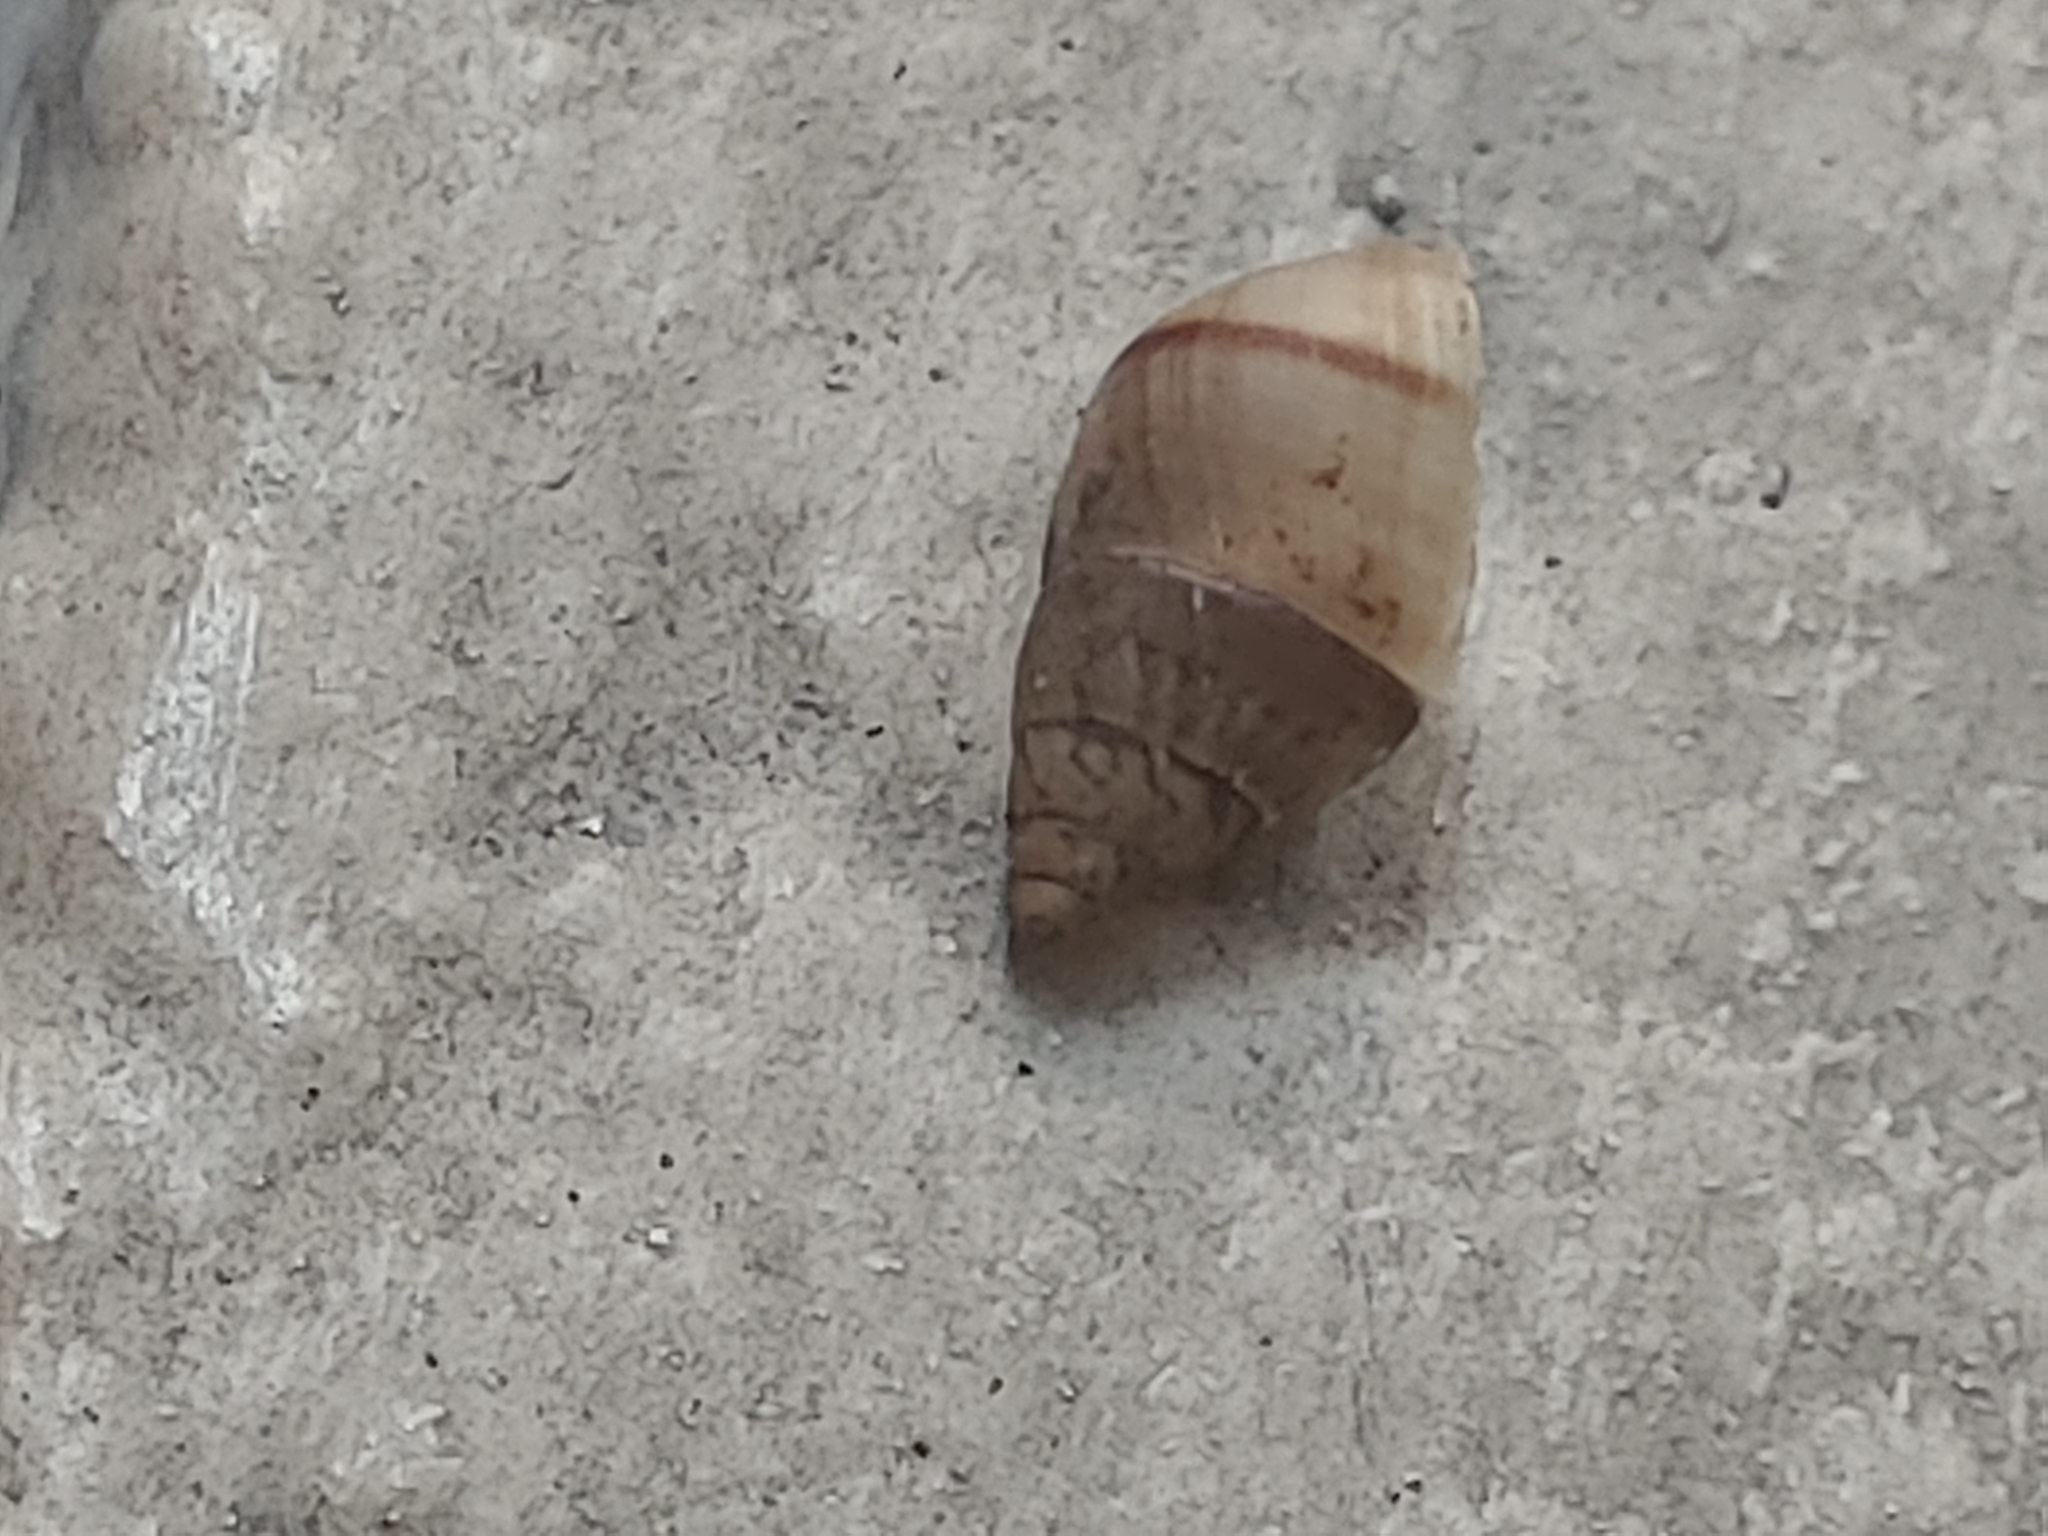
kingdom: Animalia
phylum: Mollusca
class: Gastropoda
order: Stylommatophora
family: Bulimulidae
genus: Bulimulus
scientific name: Bulimulus guadalupensis
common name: West indian bulimulus
